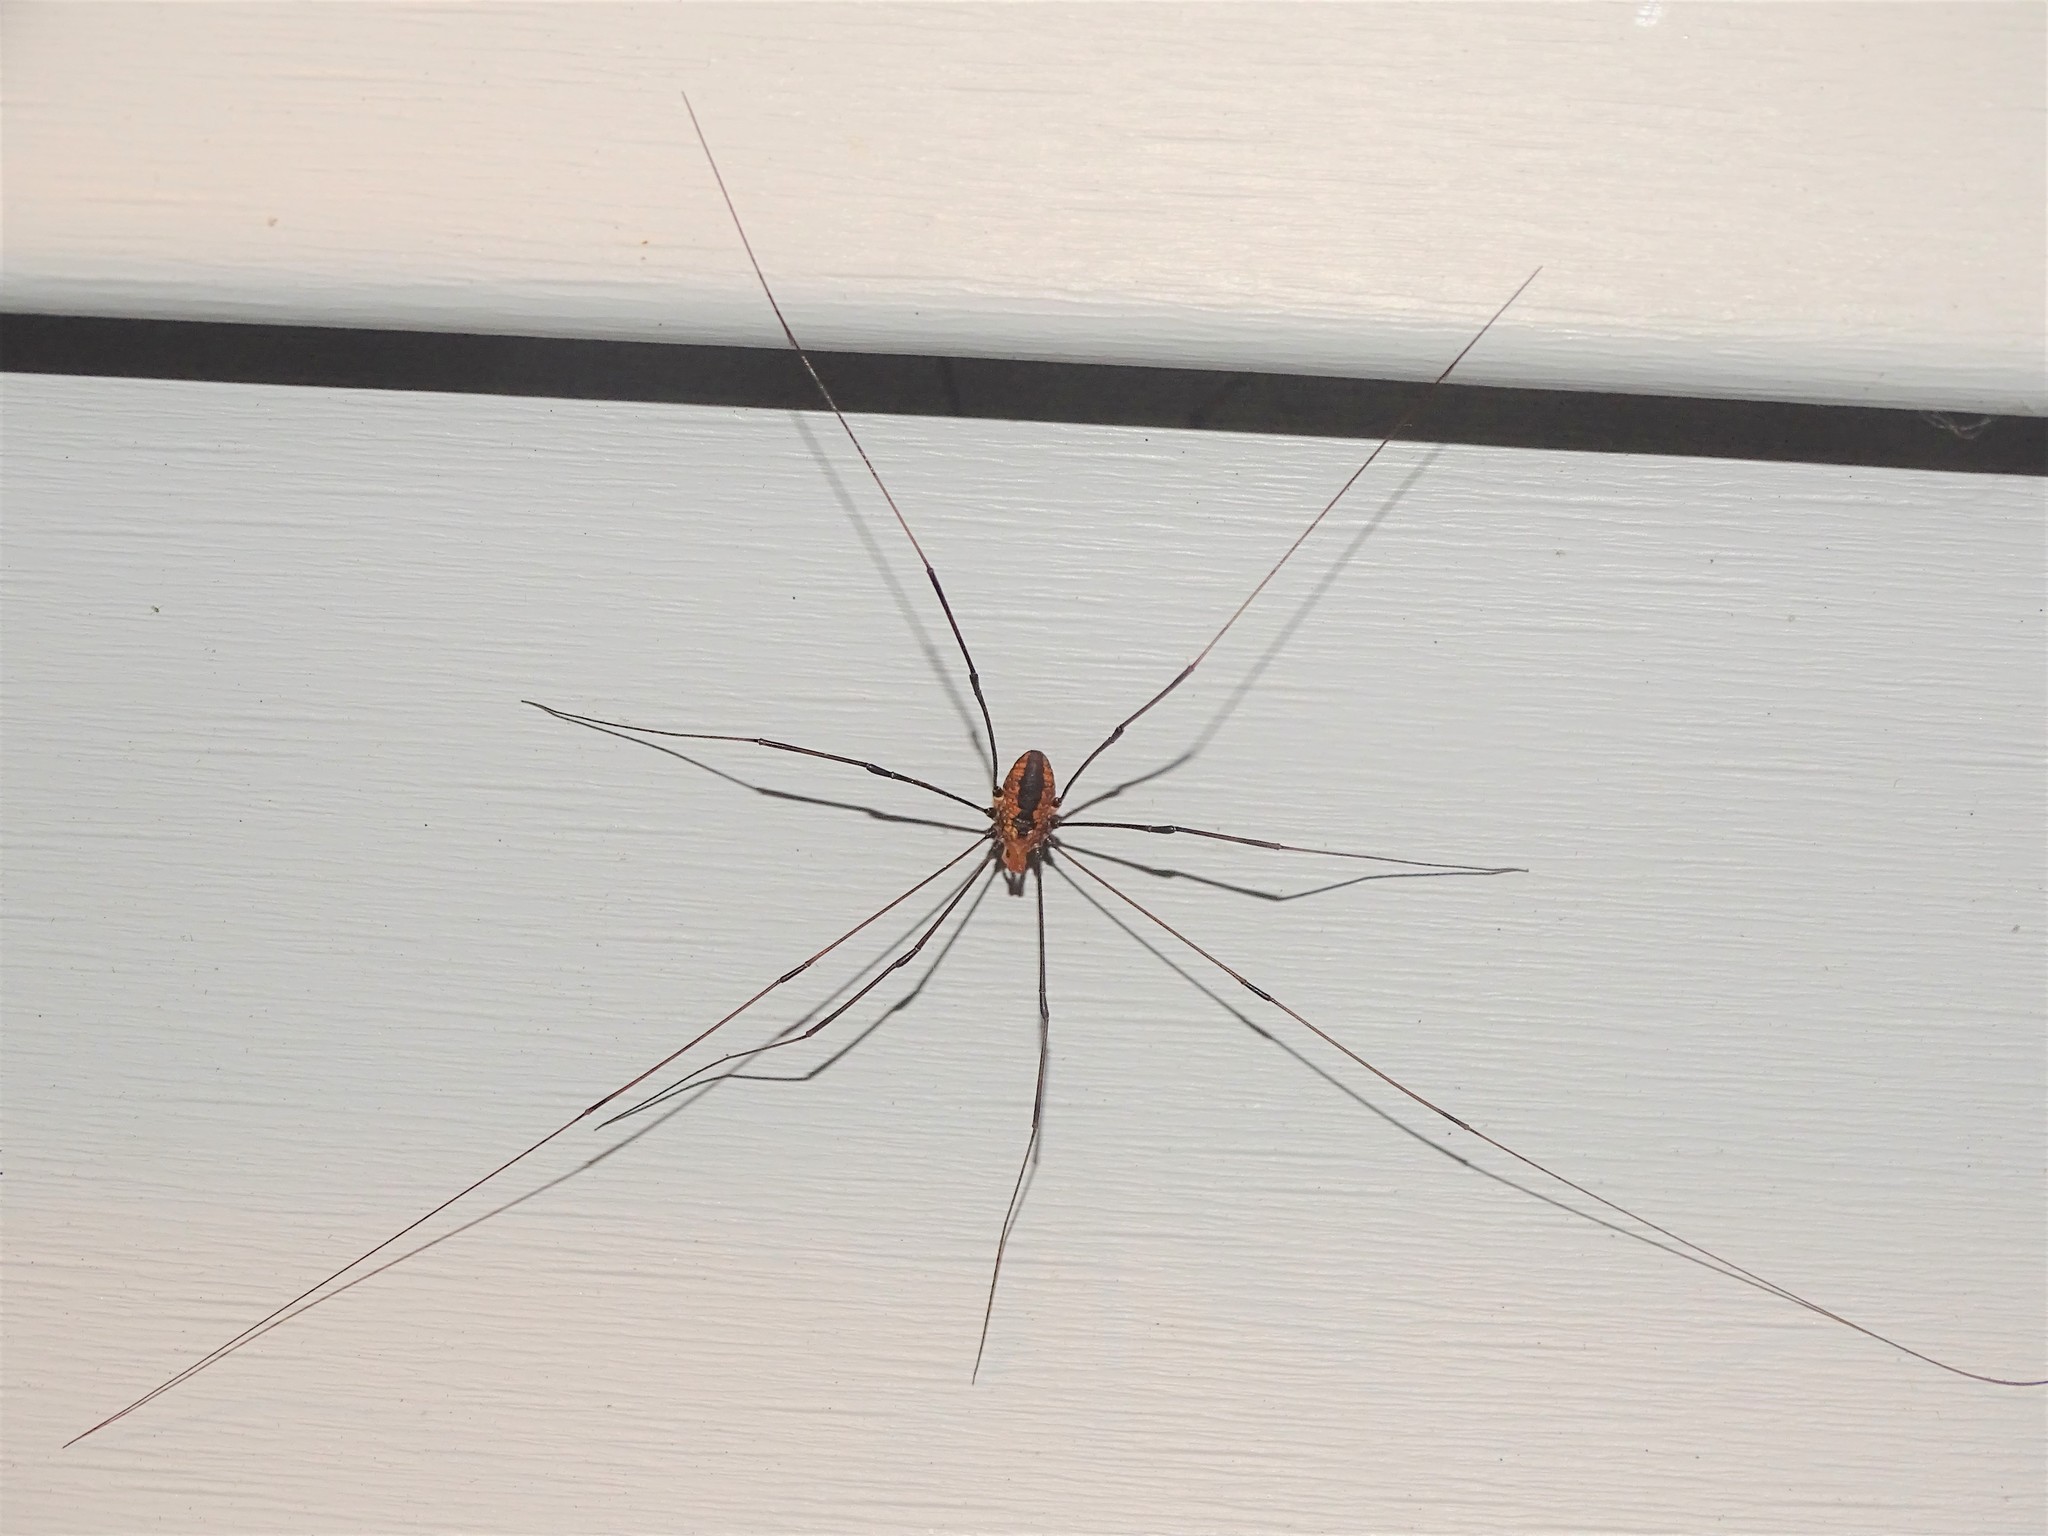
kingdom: Animalia
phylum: Arthropoda
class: Arachnida
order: Opiliones
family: Sclerosomatidae
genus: Leiobunum
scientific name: Leiobunum vittatum
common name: Eastern harvestman
